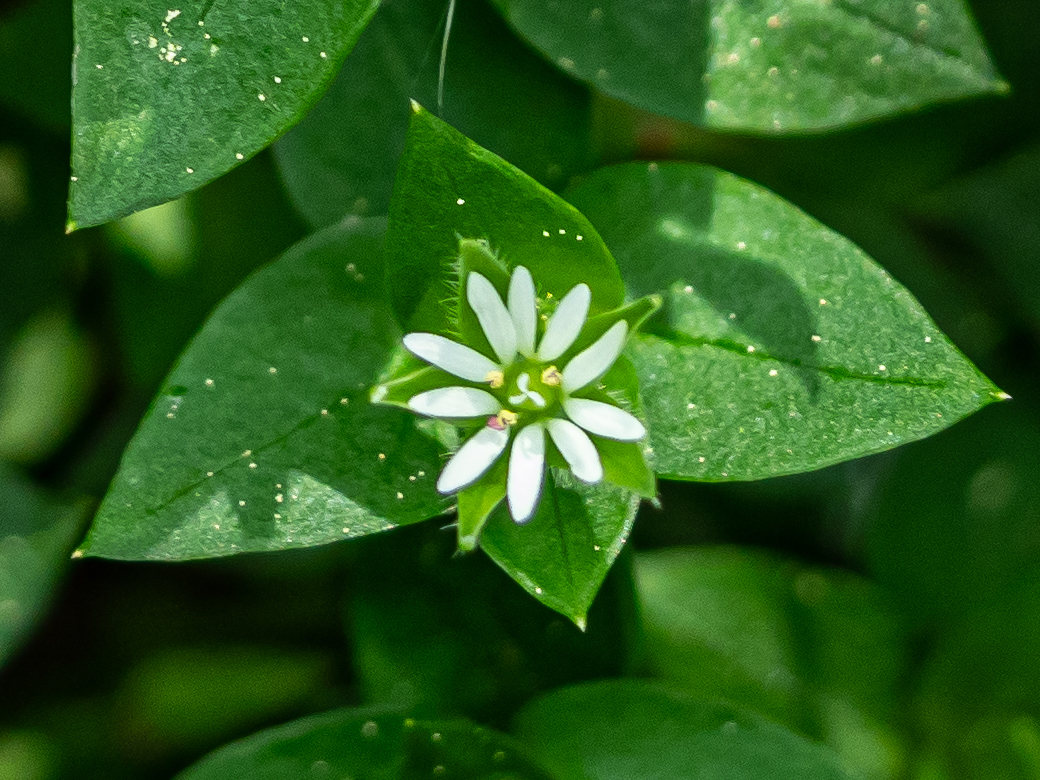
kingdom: Plantae
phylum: Tracheophyta
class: Magnoliopsida
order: Caryophyllales
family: Caryophyllaceae
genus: Stellaria
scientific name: Stellaria media
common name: Common chickweed
